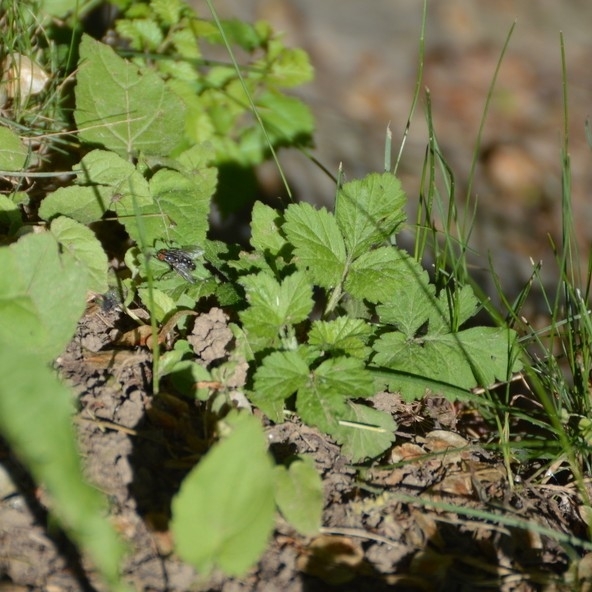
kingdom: Plantae
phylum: Tracheophyta
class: Magnoliopsida
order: Rosales
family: Rosaceae
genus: Geum
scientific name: Geum urbanum
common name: Wood avens
